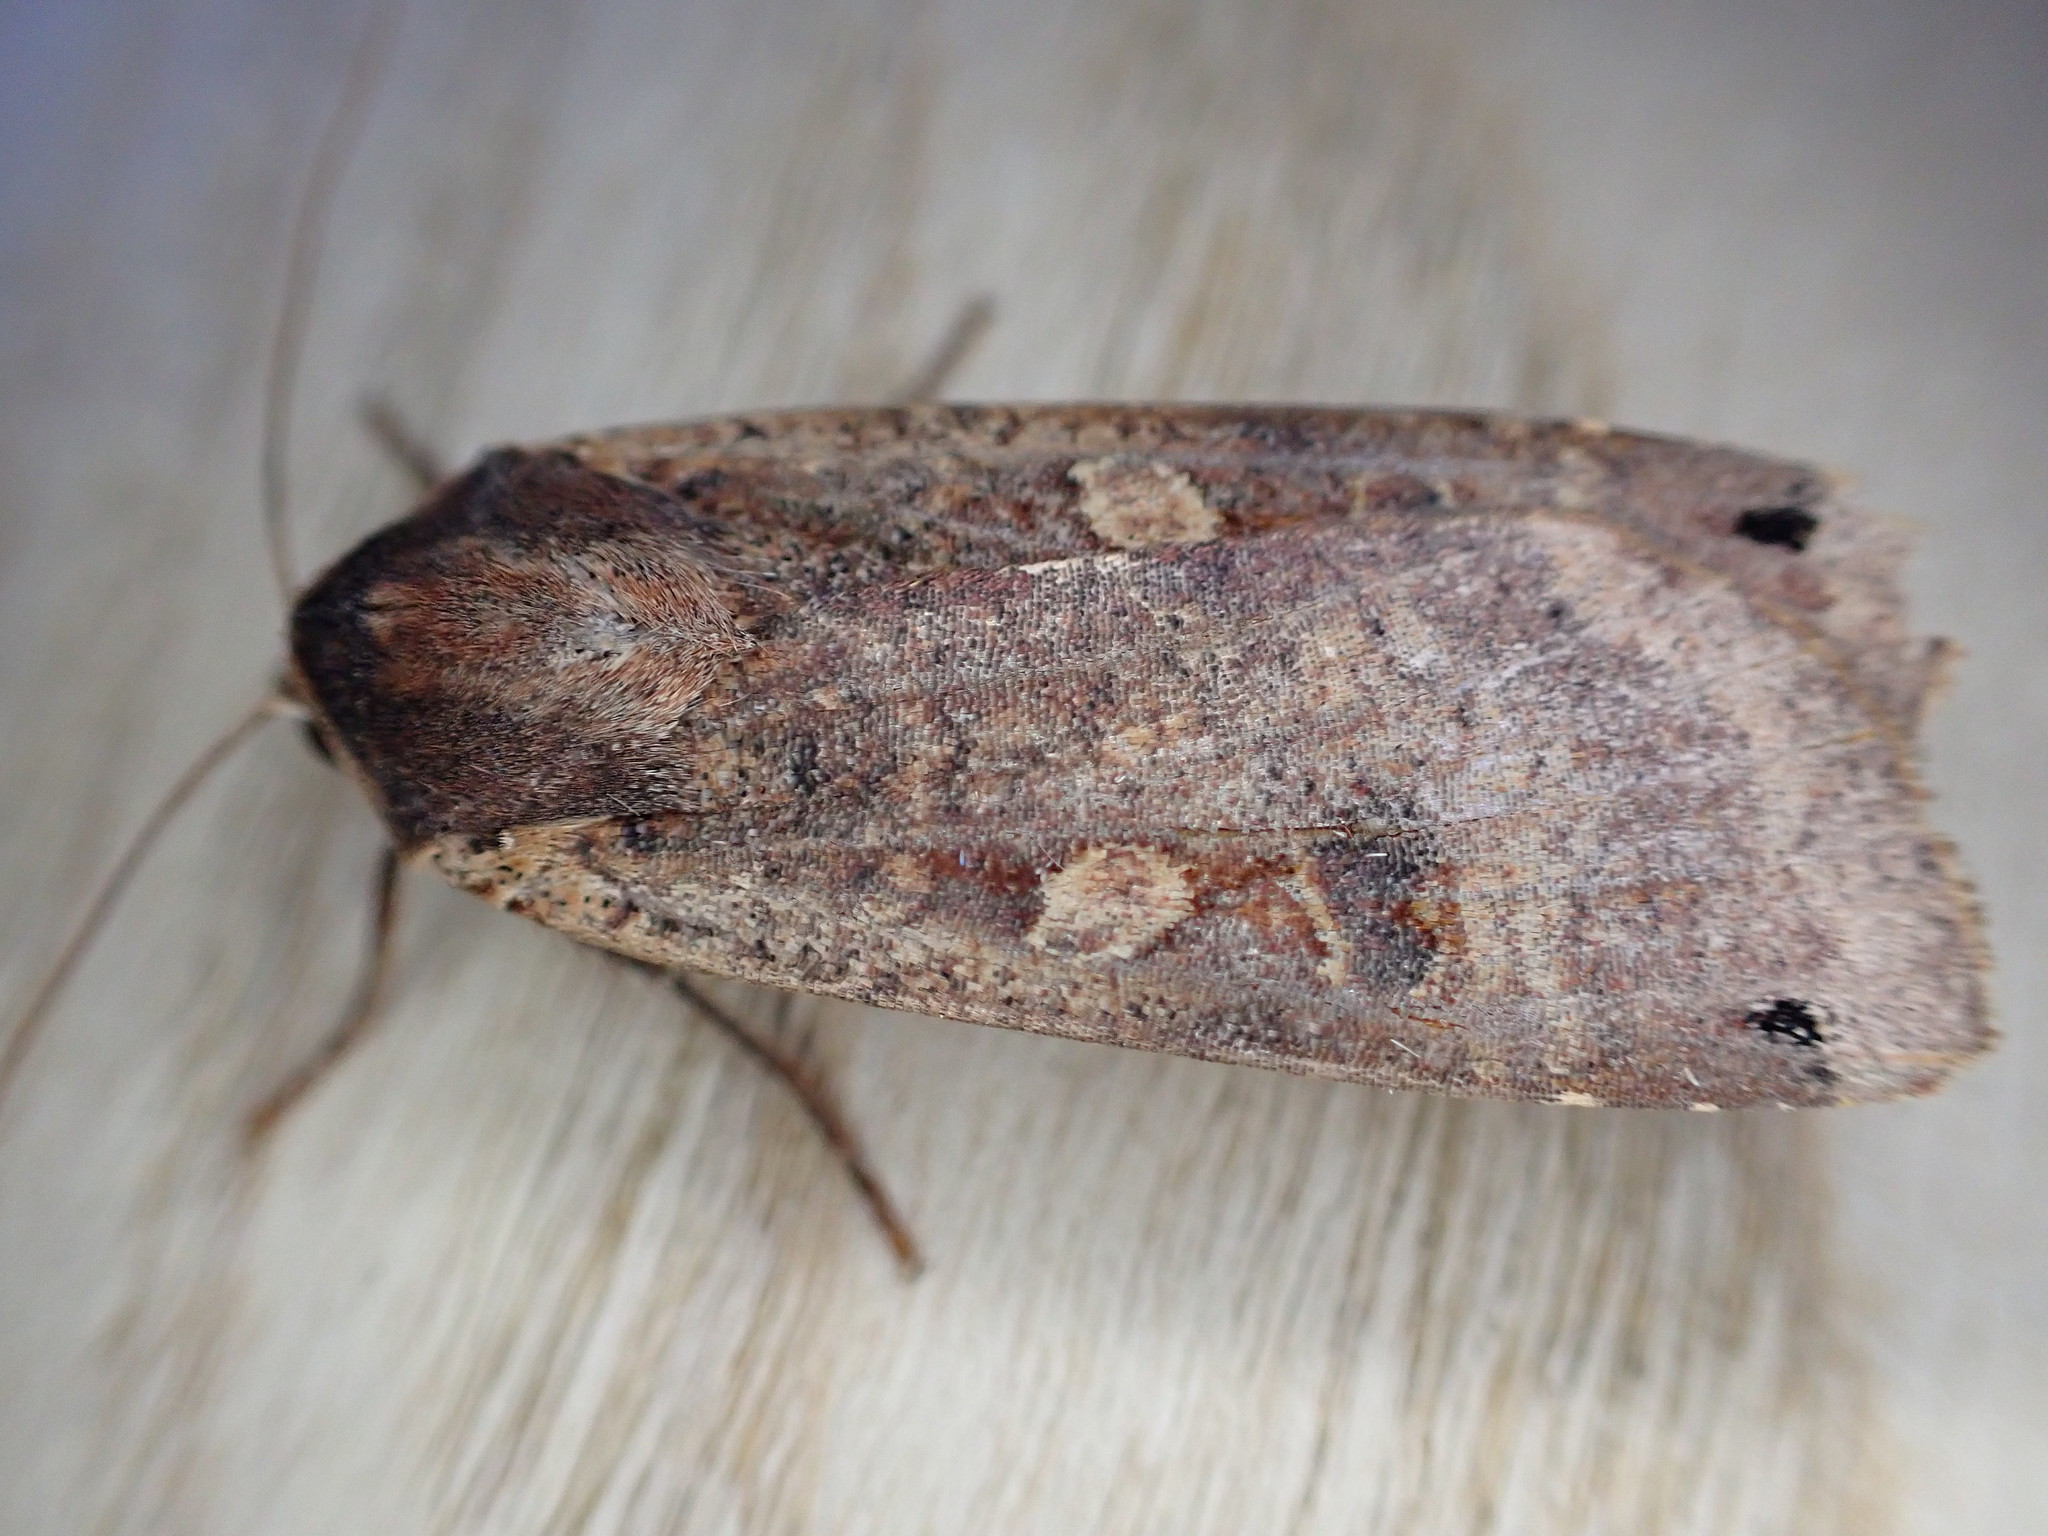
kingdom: Animalia
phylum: Arthropoda
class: Insecta
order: Lepidoptera
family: Noctuidae
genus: Noctua
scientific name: Noctua pronuba
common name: Large yellow underwing
